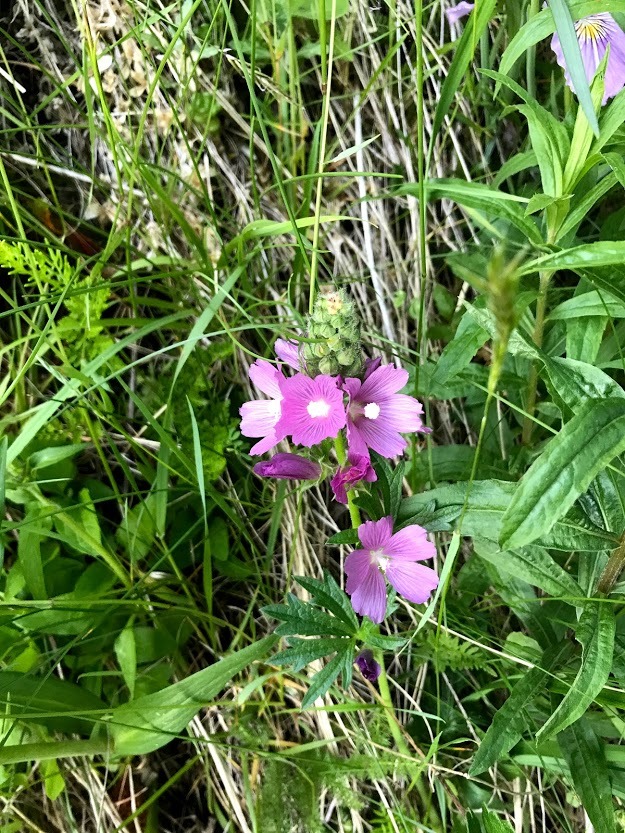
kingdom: Plantae
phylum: Tracheophyta
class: Magnoliopsida
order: Malvales
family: Malvaceae
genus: Sidalcea
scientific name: Sidalcea hirtipes
